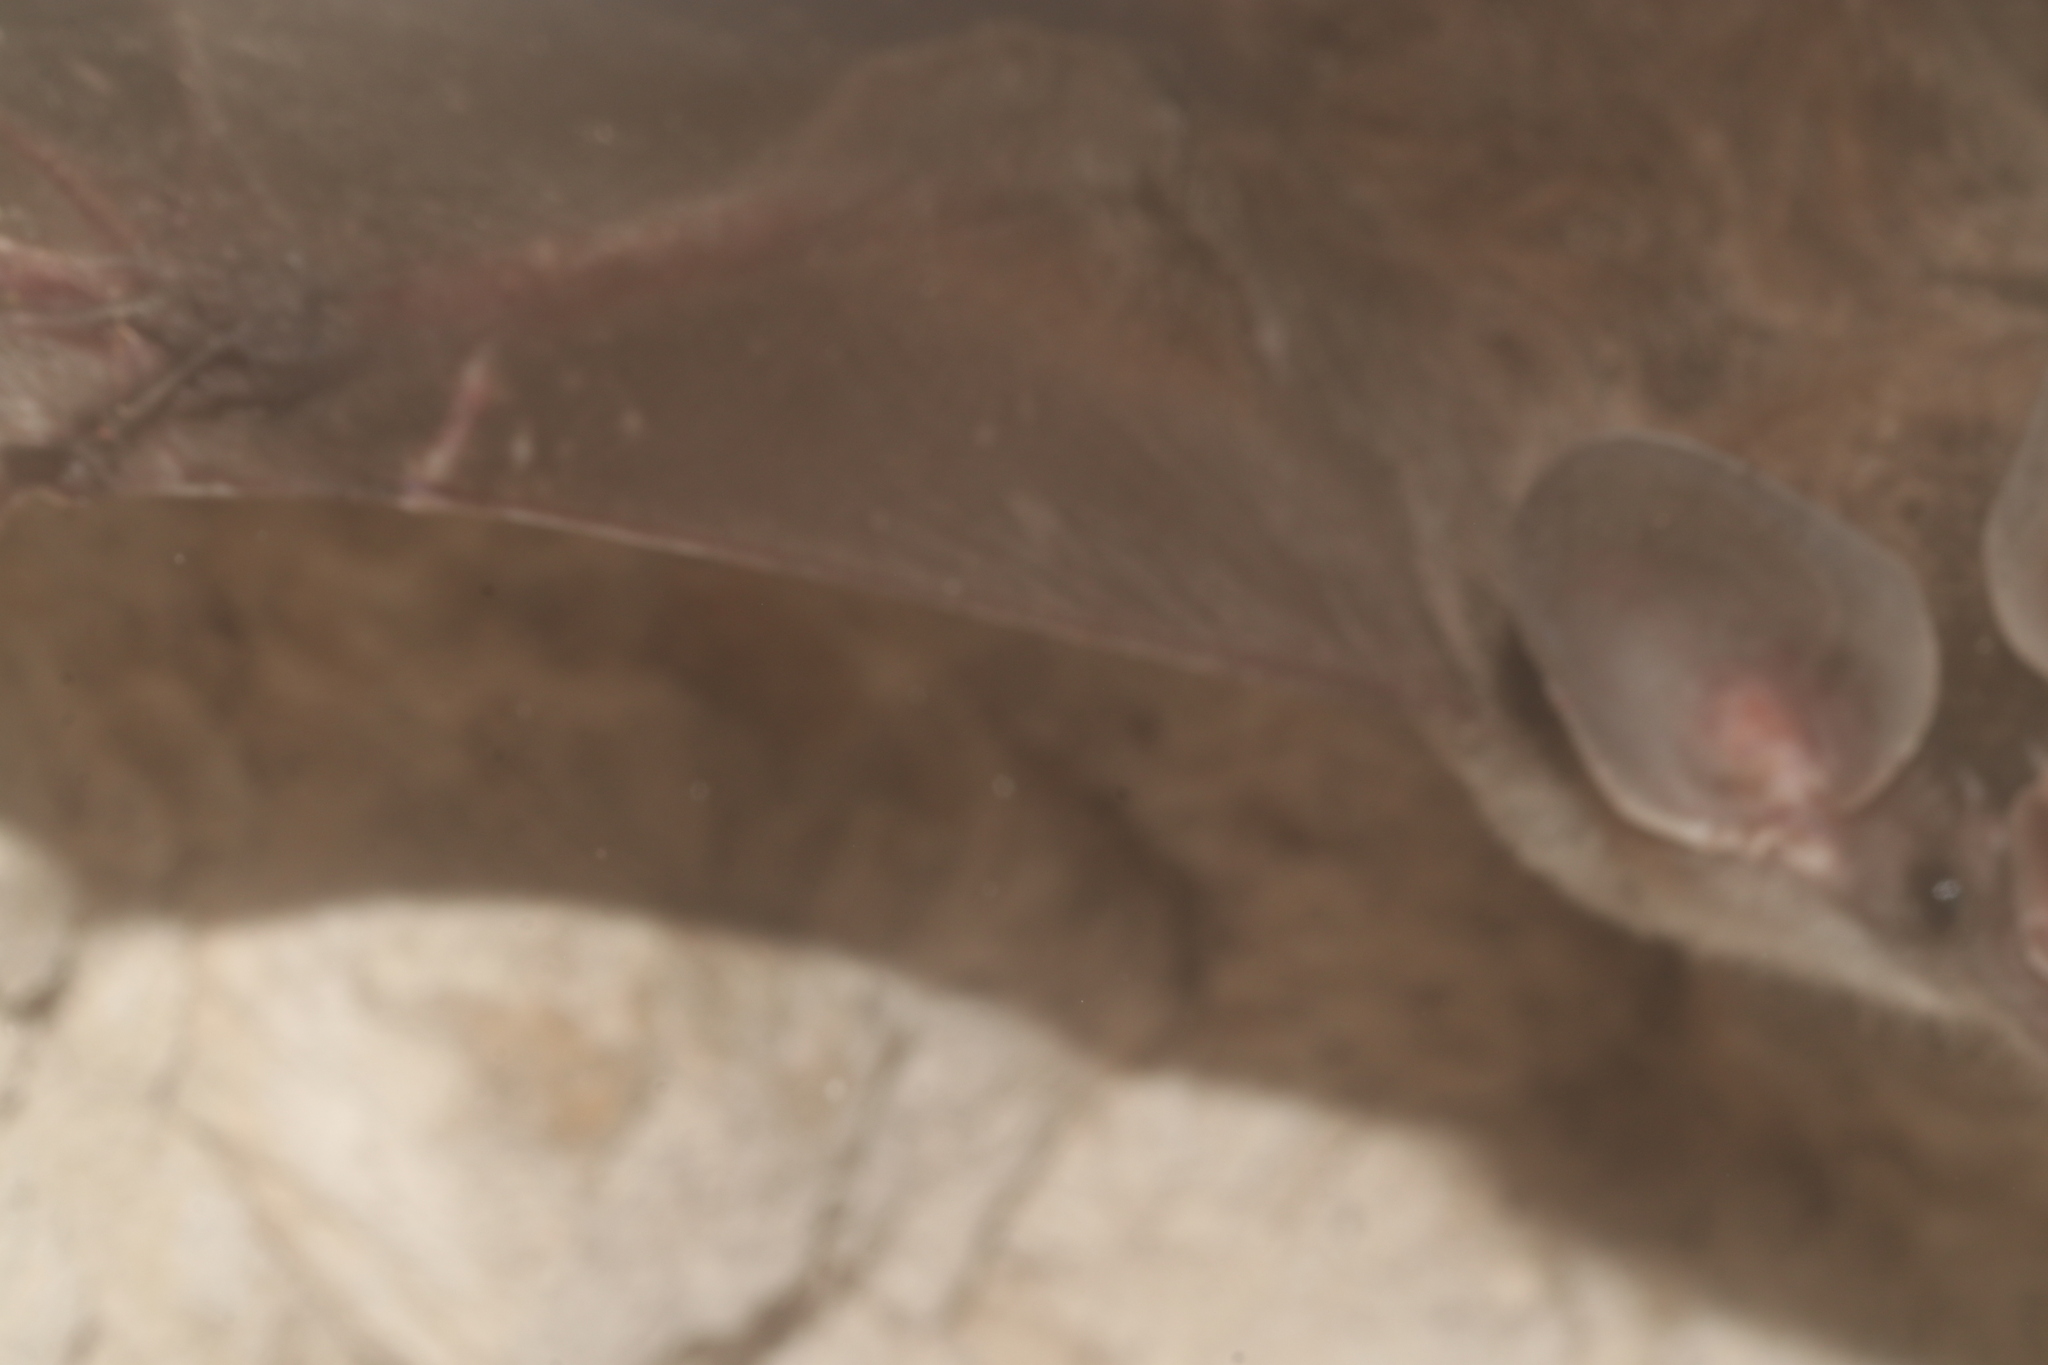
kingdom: Animalia
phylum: Chordata
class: Mammalia
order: Chiroptera
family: Phyllostomidae
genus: Chrotopterus
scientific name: Chrotopterus auritus
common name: Woolly false vampire bat
